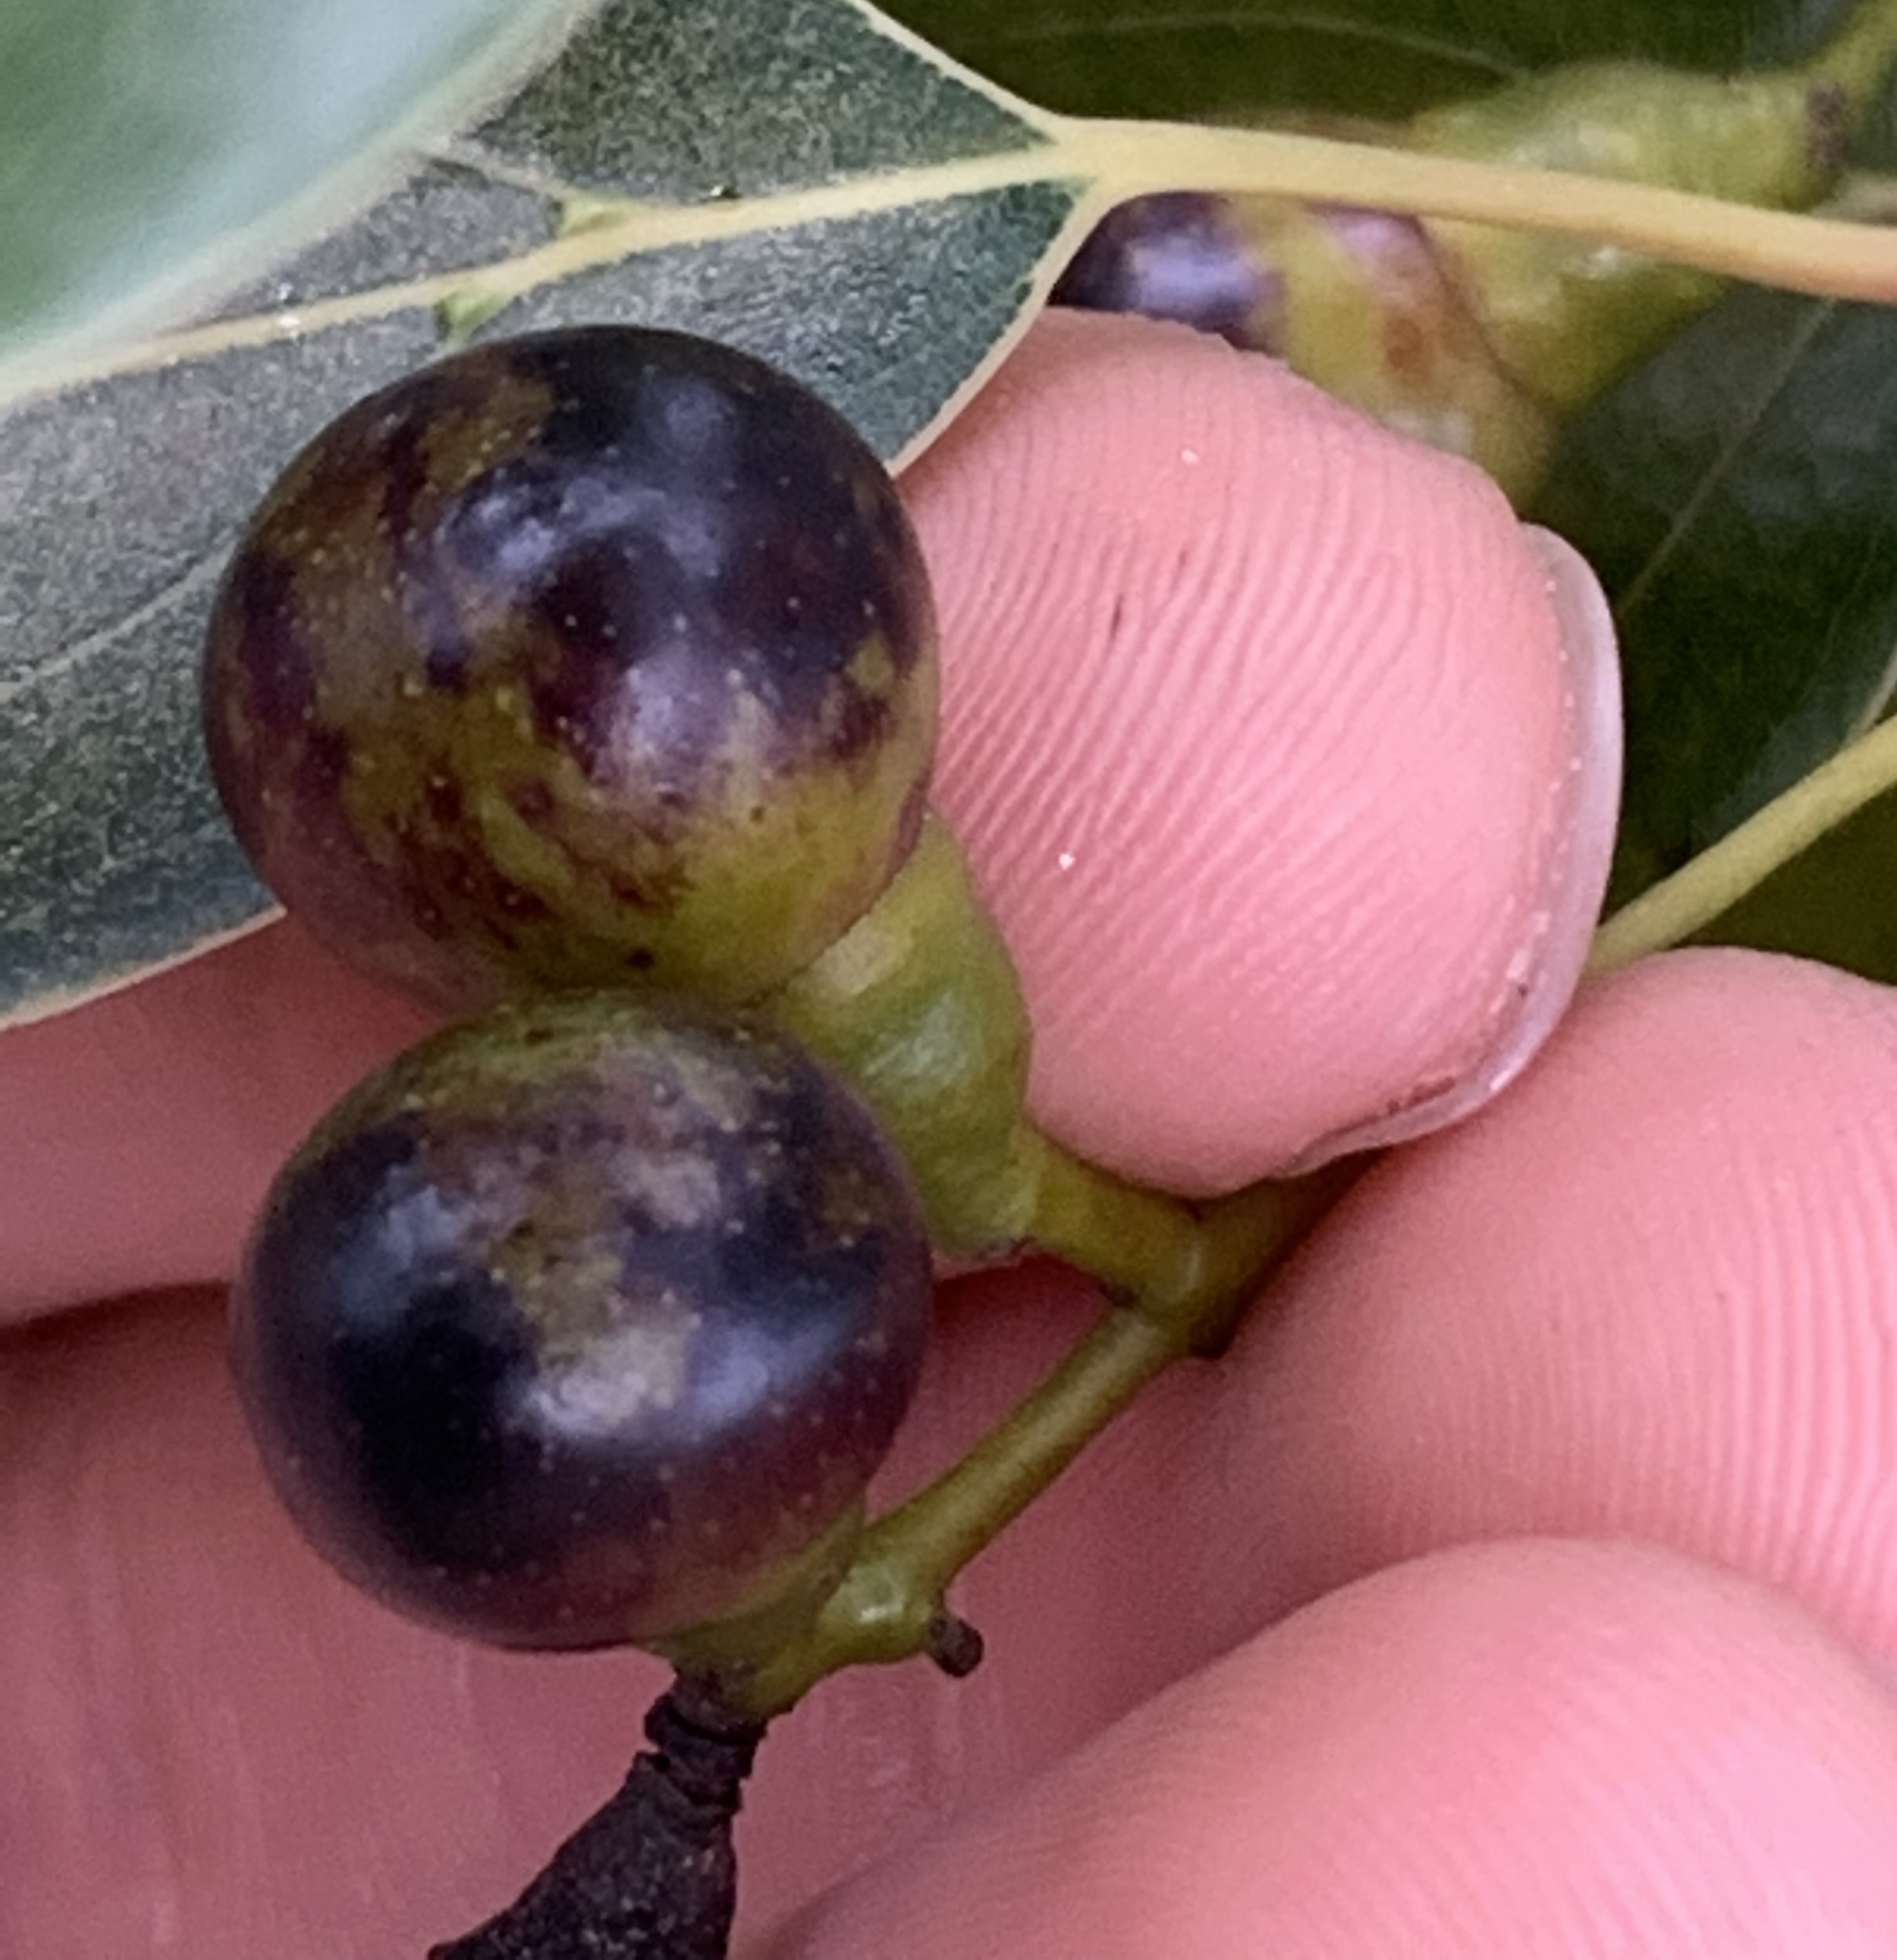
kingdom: Plantae
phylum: Tracheophyta
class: Magnoliopsida
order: Laurales
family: Lauraceae
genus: Cinnamomum
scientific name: Cinnamomum camphora
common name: Camphortree
